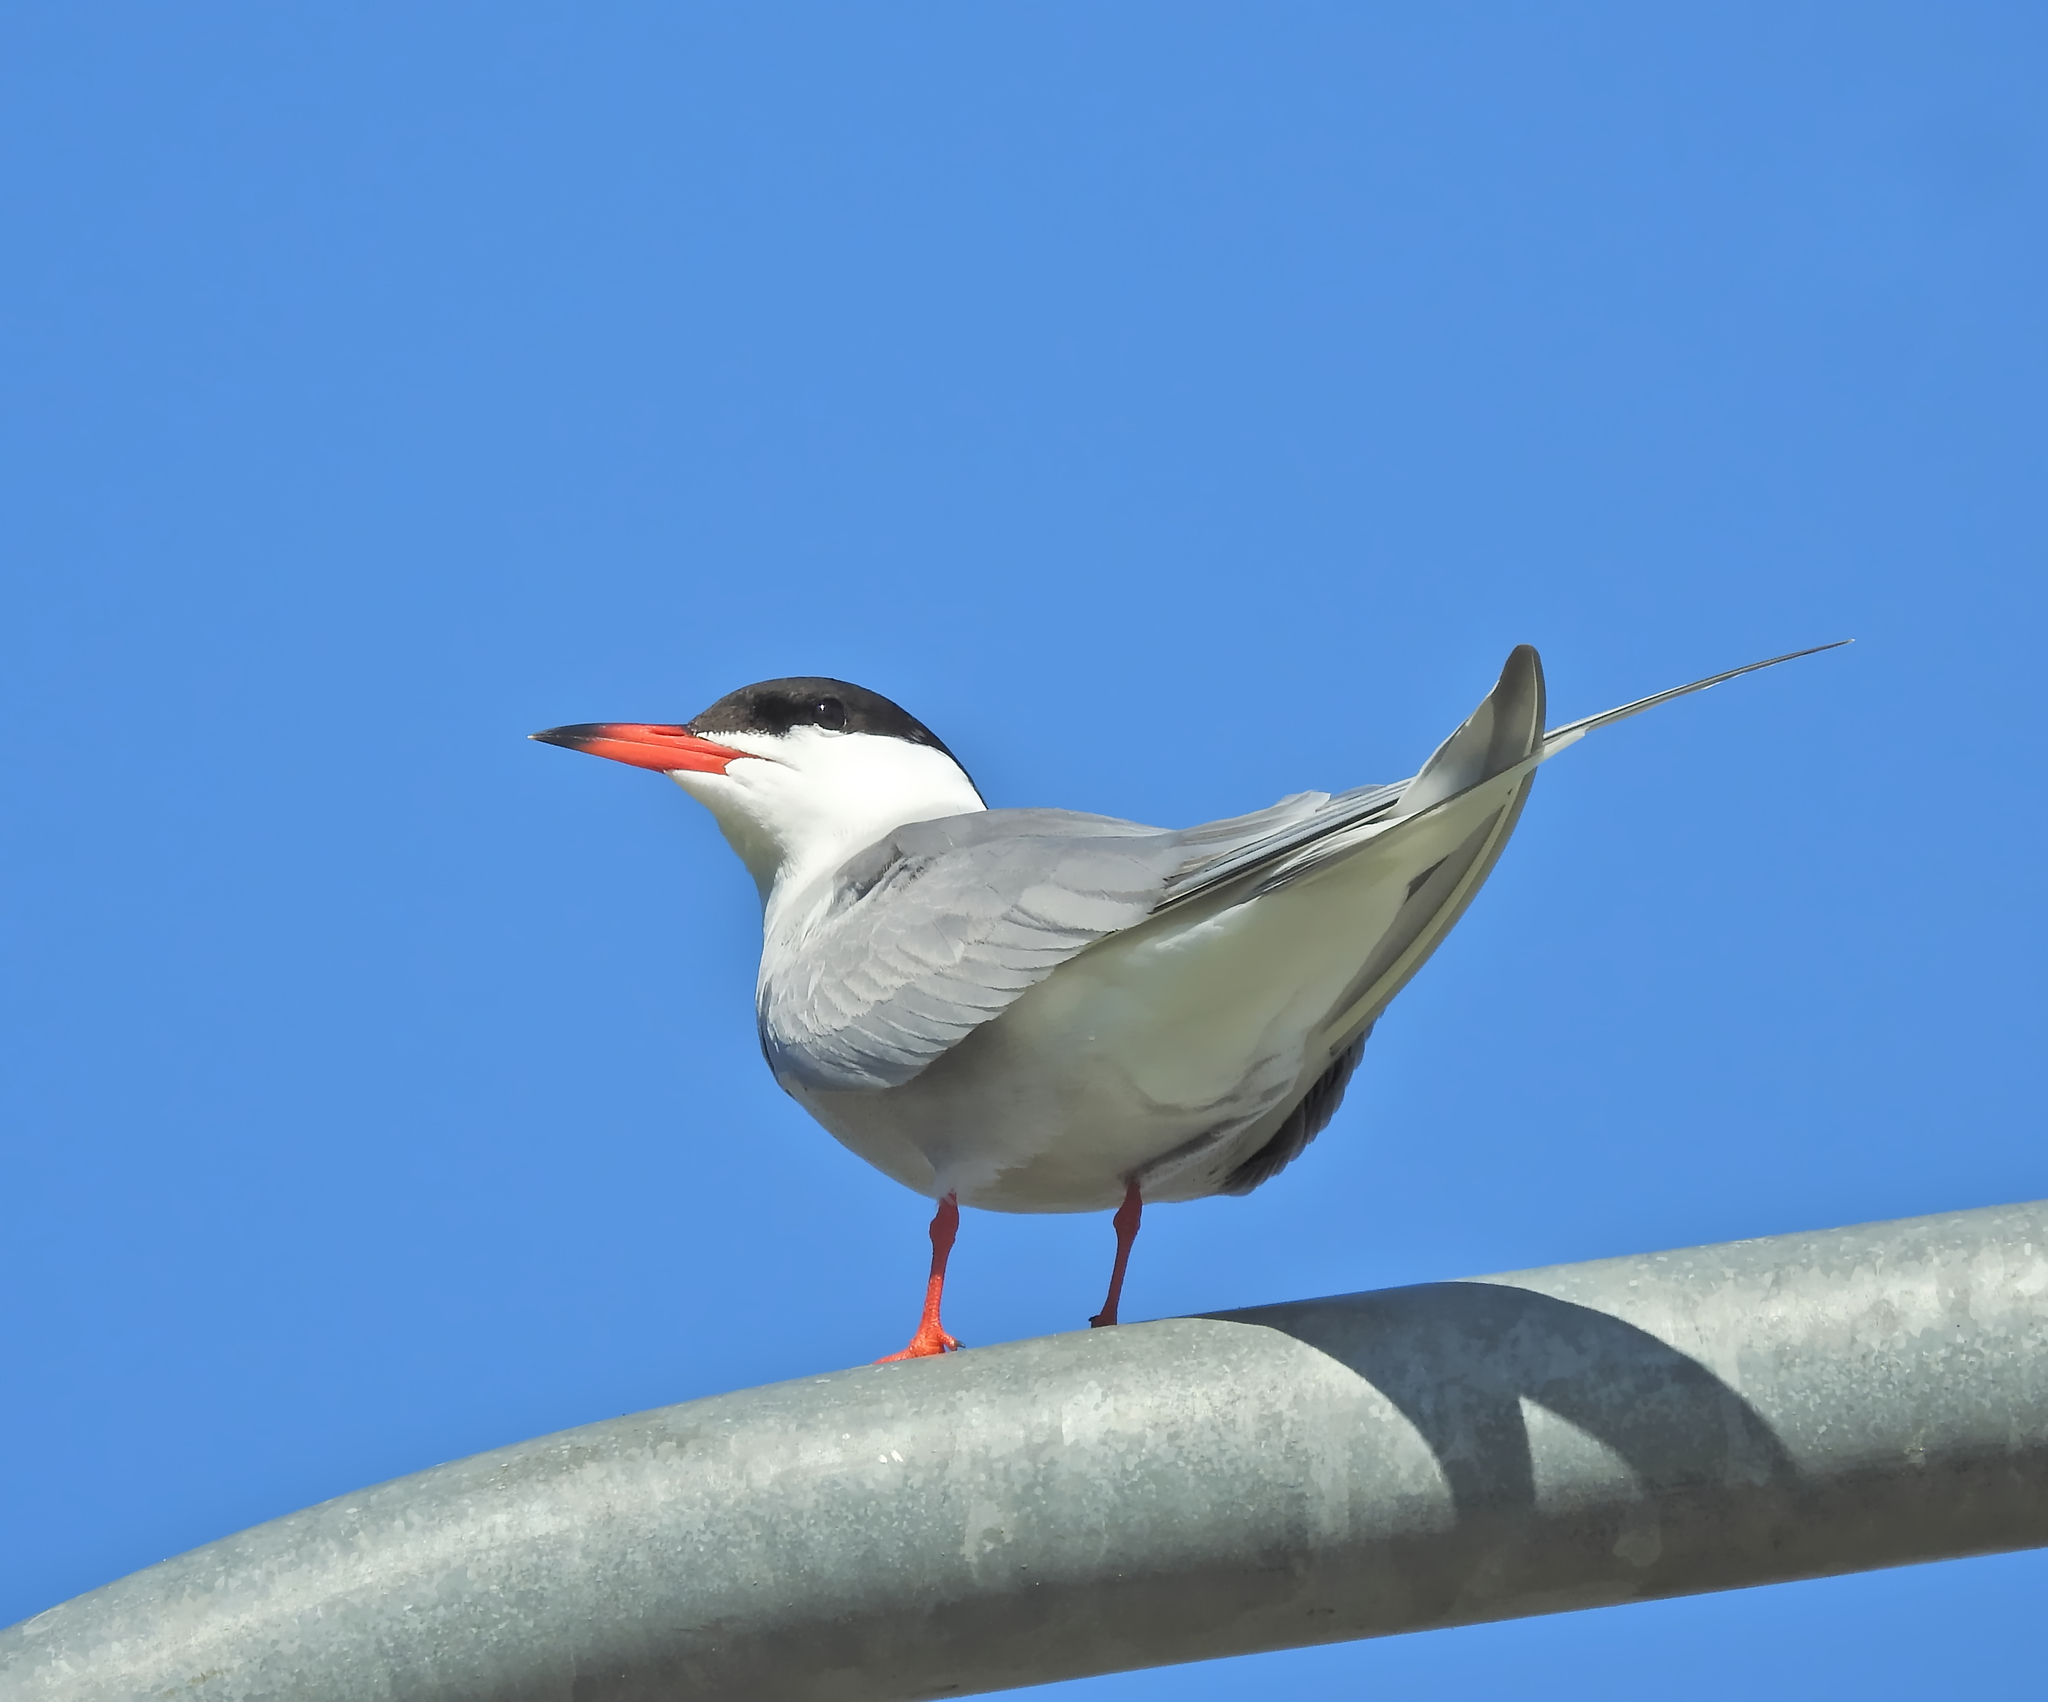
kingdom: Animalia
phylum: Chordata
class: Aves
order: Charadriiformes
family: Laridae
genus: Sterna
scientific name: Sterna hirundo
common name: Common tern
